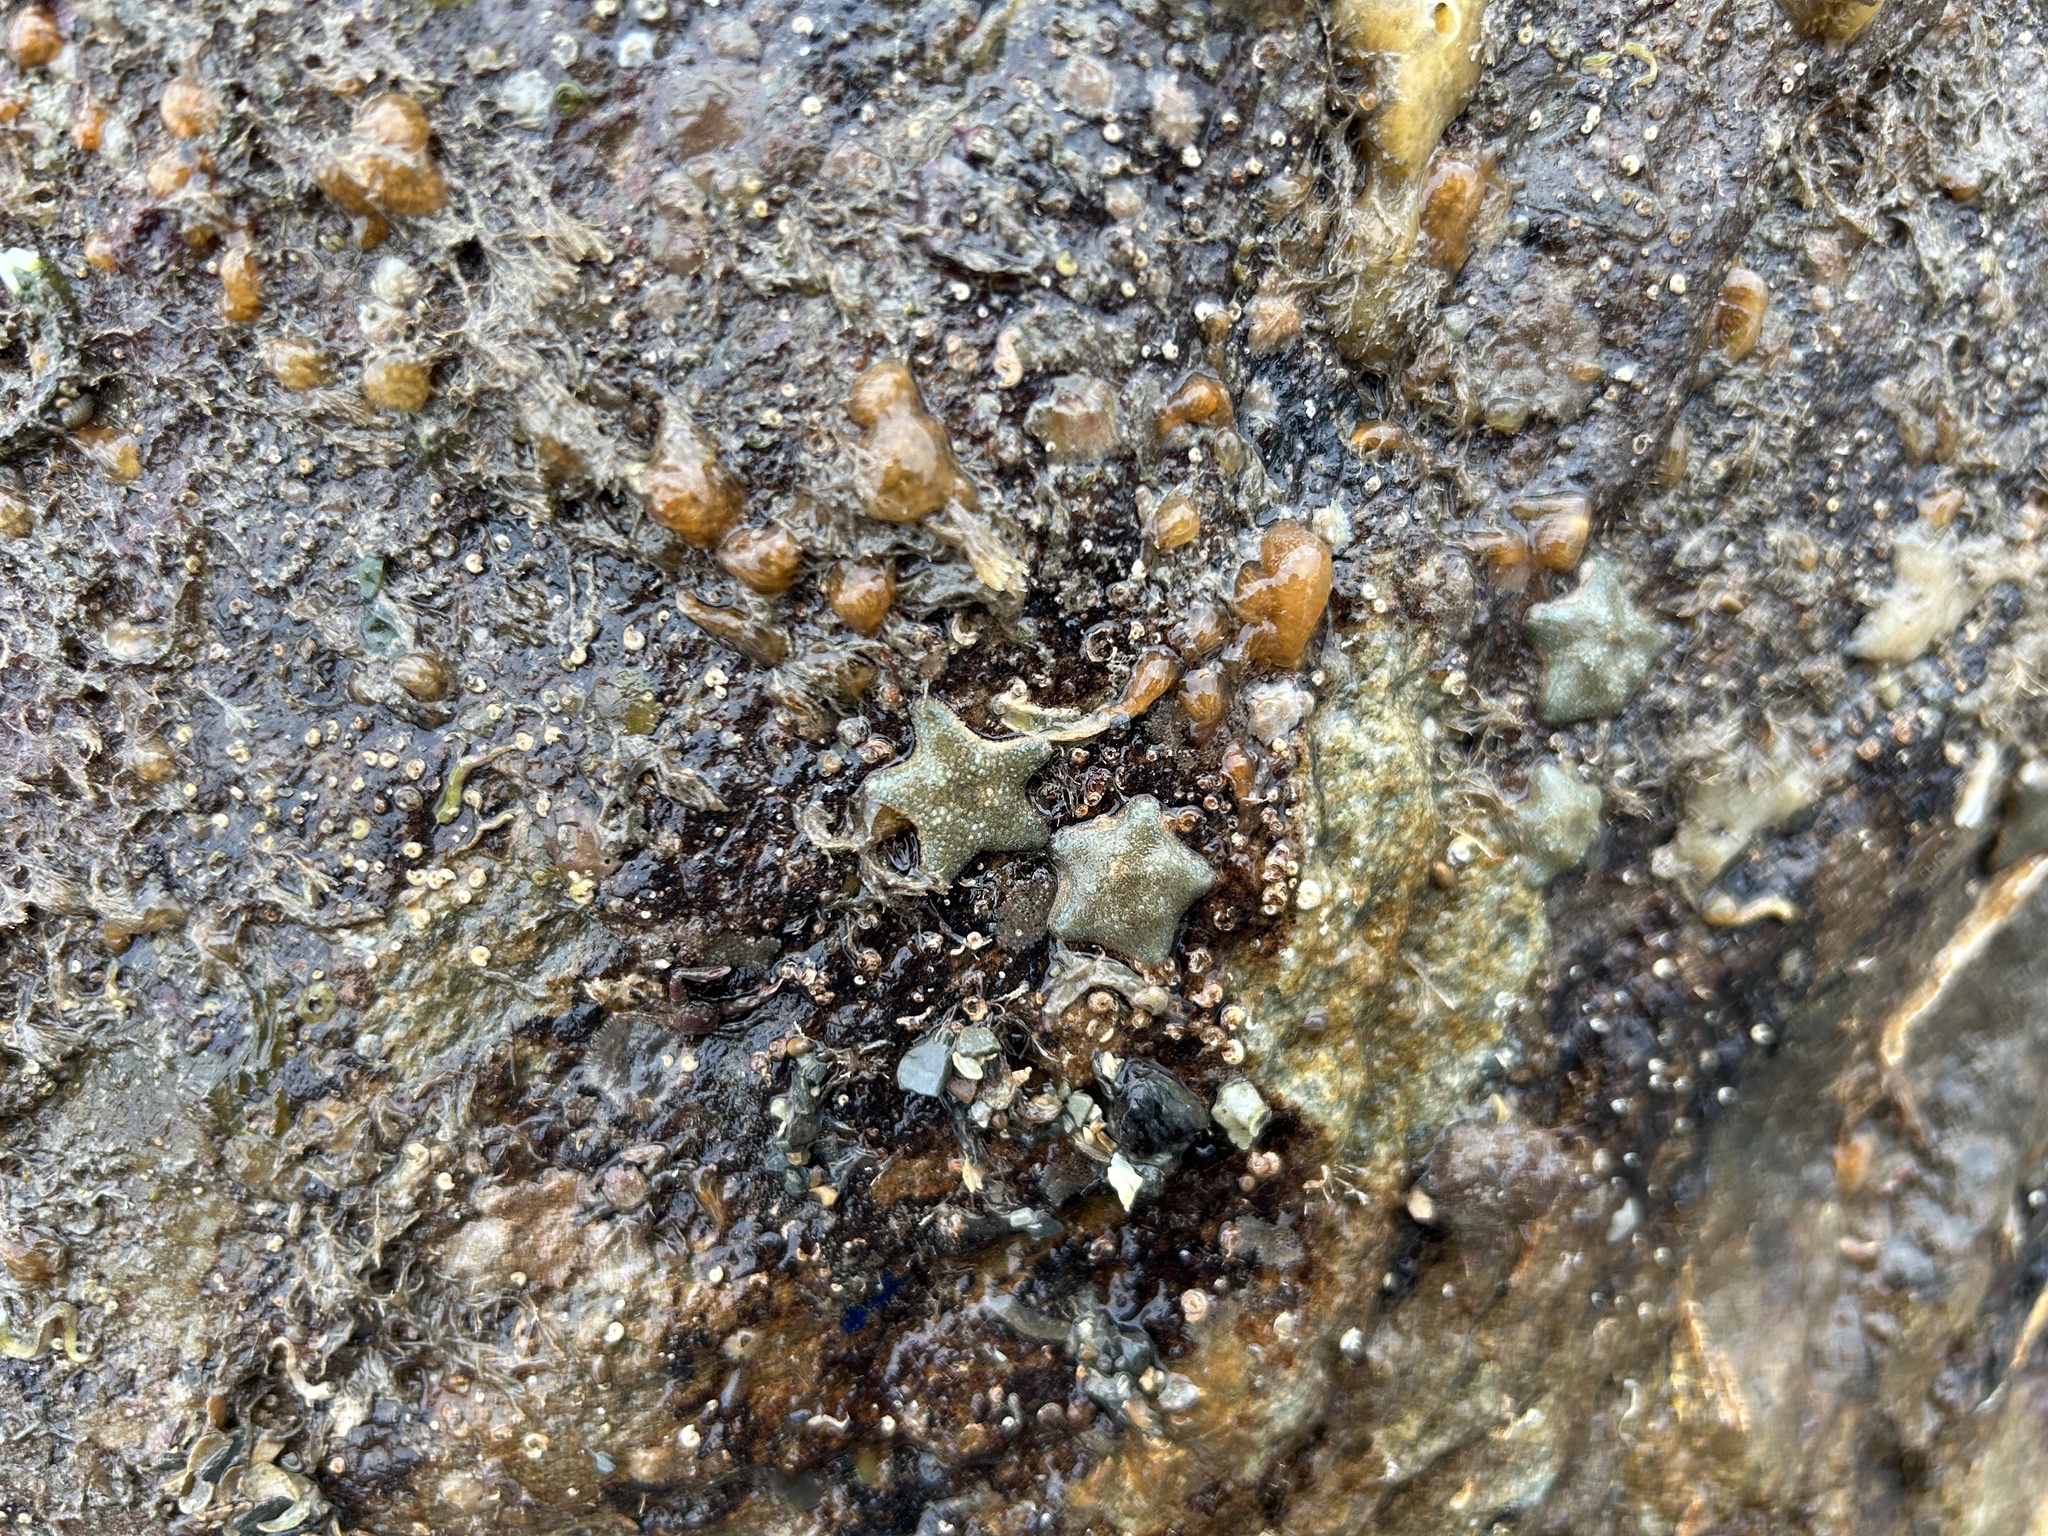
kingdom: Animalia
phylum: Echinodermata
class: Asteroidea
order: Valvatida
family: Asterinidae
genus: Asterina
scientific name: Asterina gibbosa
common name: Cushion star
